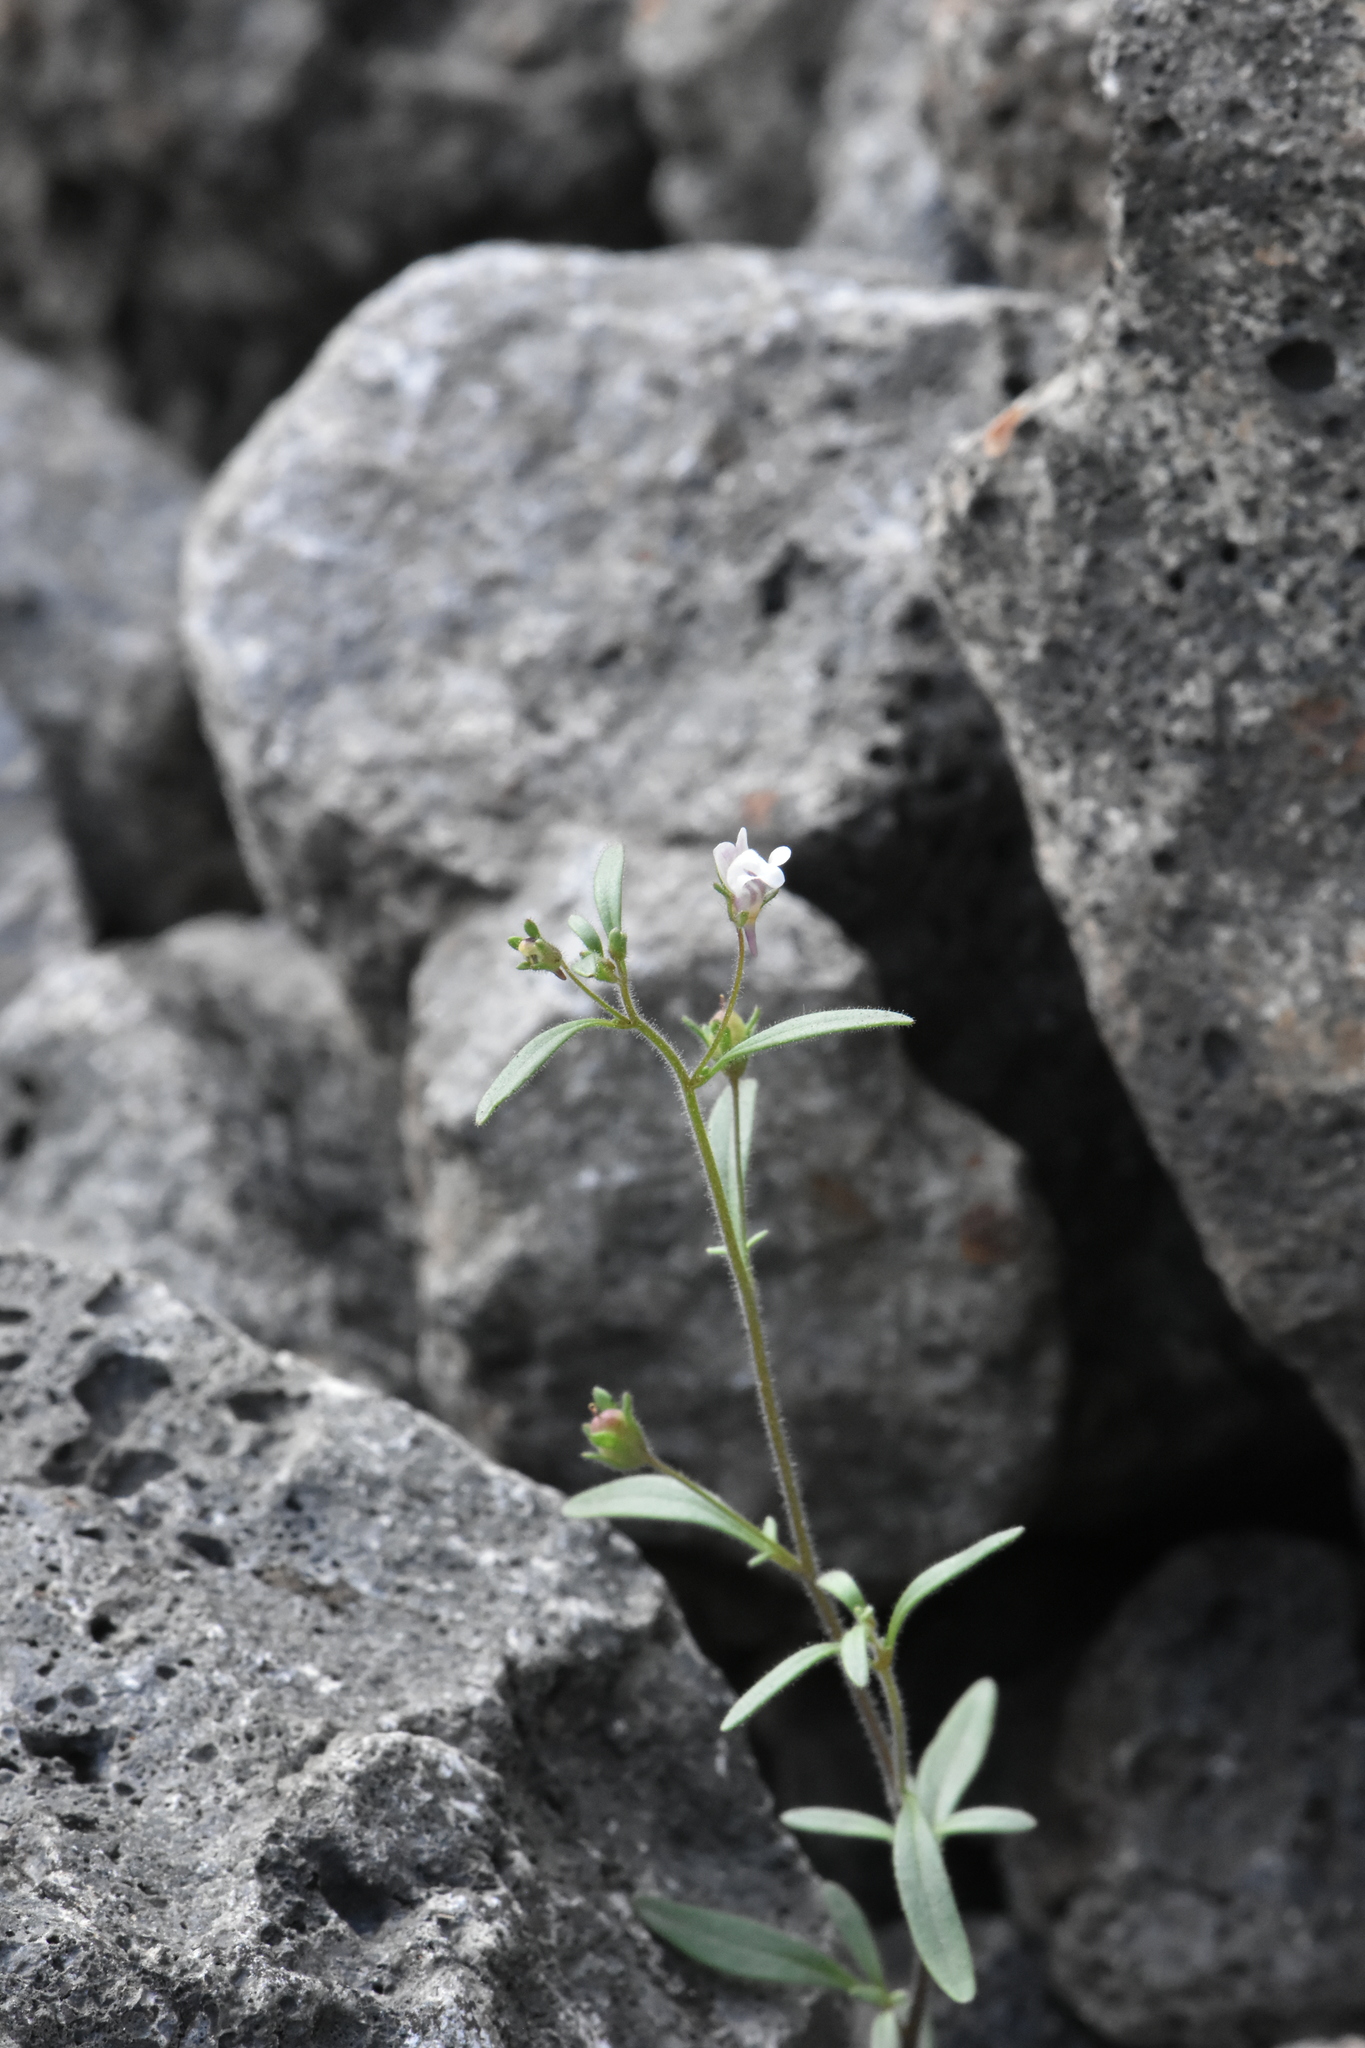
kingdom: Plantae
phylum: Tracheophyta
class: Magnoliopsida
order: Lamiales
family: Plantaginaceae
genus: Chaenorhinum
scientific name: Chaenorhinum minus
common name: Dwarf snapdragon
